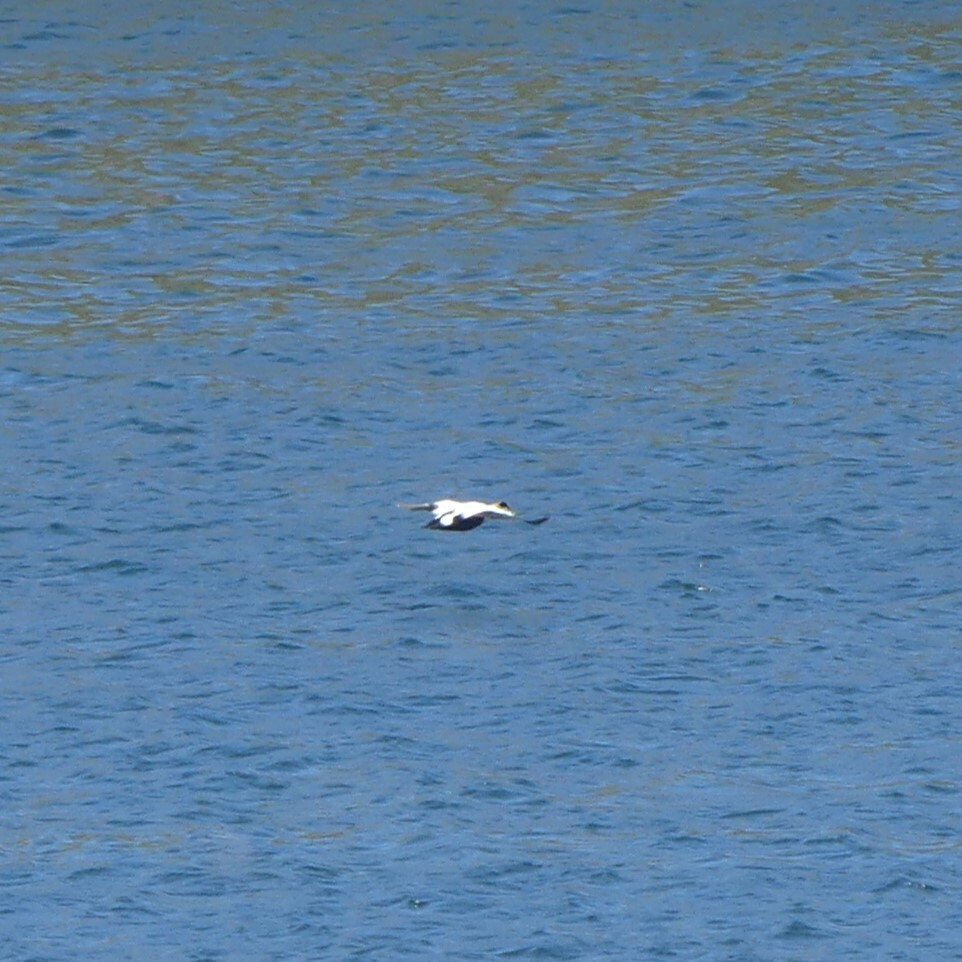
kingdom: Animalia
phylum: Chordata
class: Aves
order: Anseriformes
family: Anatidae
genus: Somateria
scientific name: Somateria mollissima
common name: Common eider
